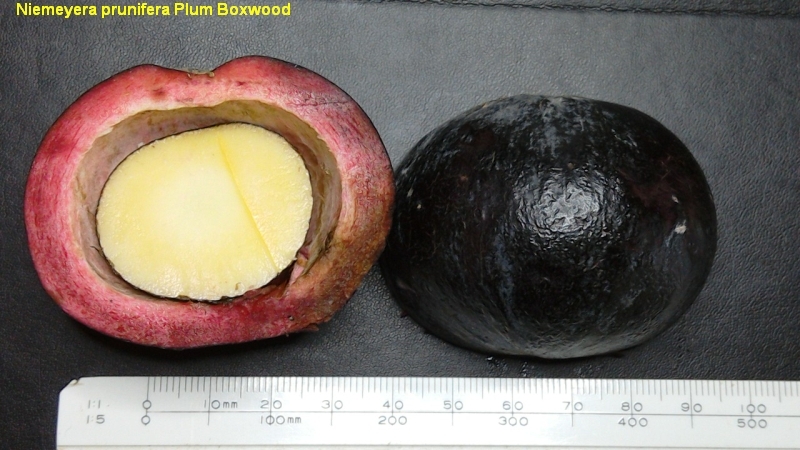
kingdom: Plantae
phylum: Tracheophyta
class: Magnoliopsida
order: Ericales
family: Sapotaceae
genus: Niemeyera
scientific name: Niemeyera prunifera
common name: Brown pearwood
